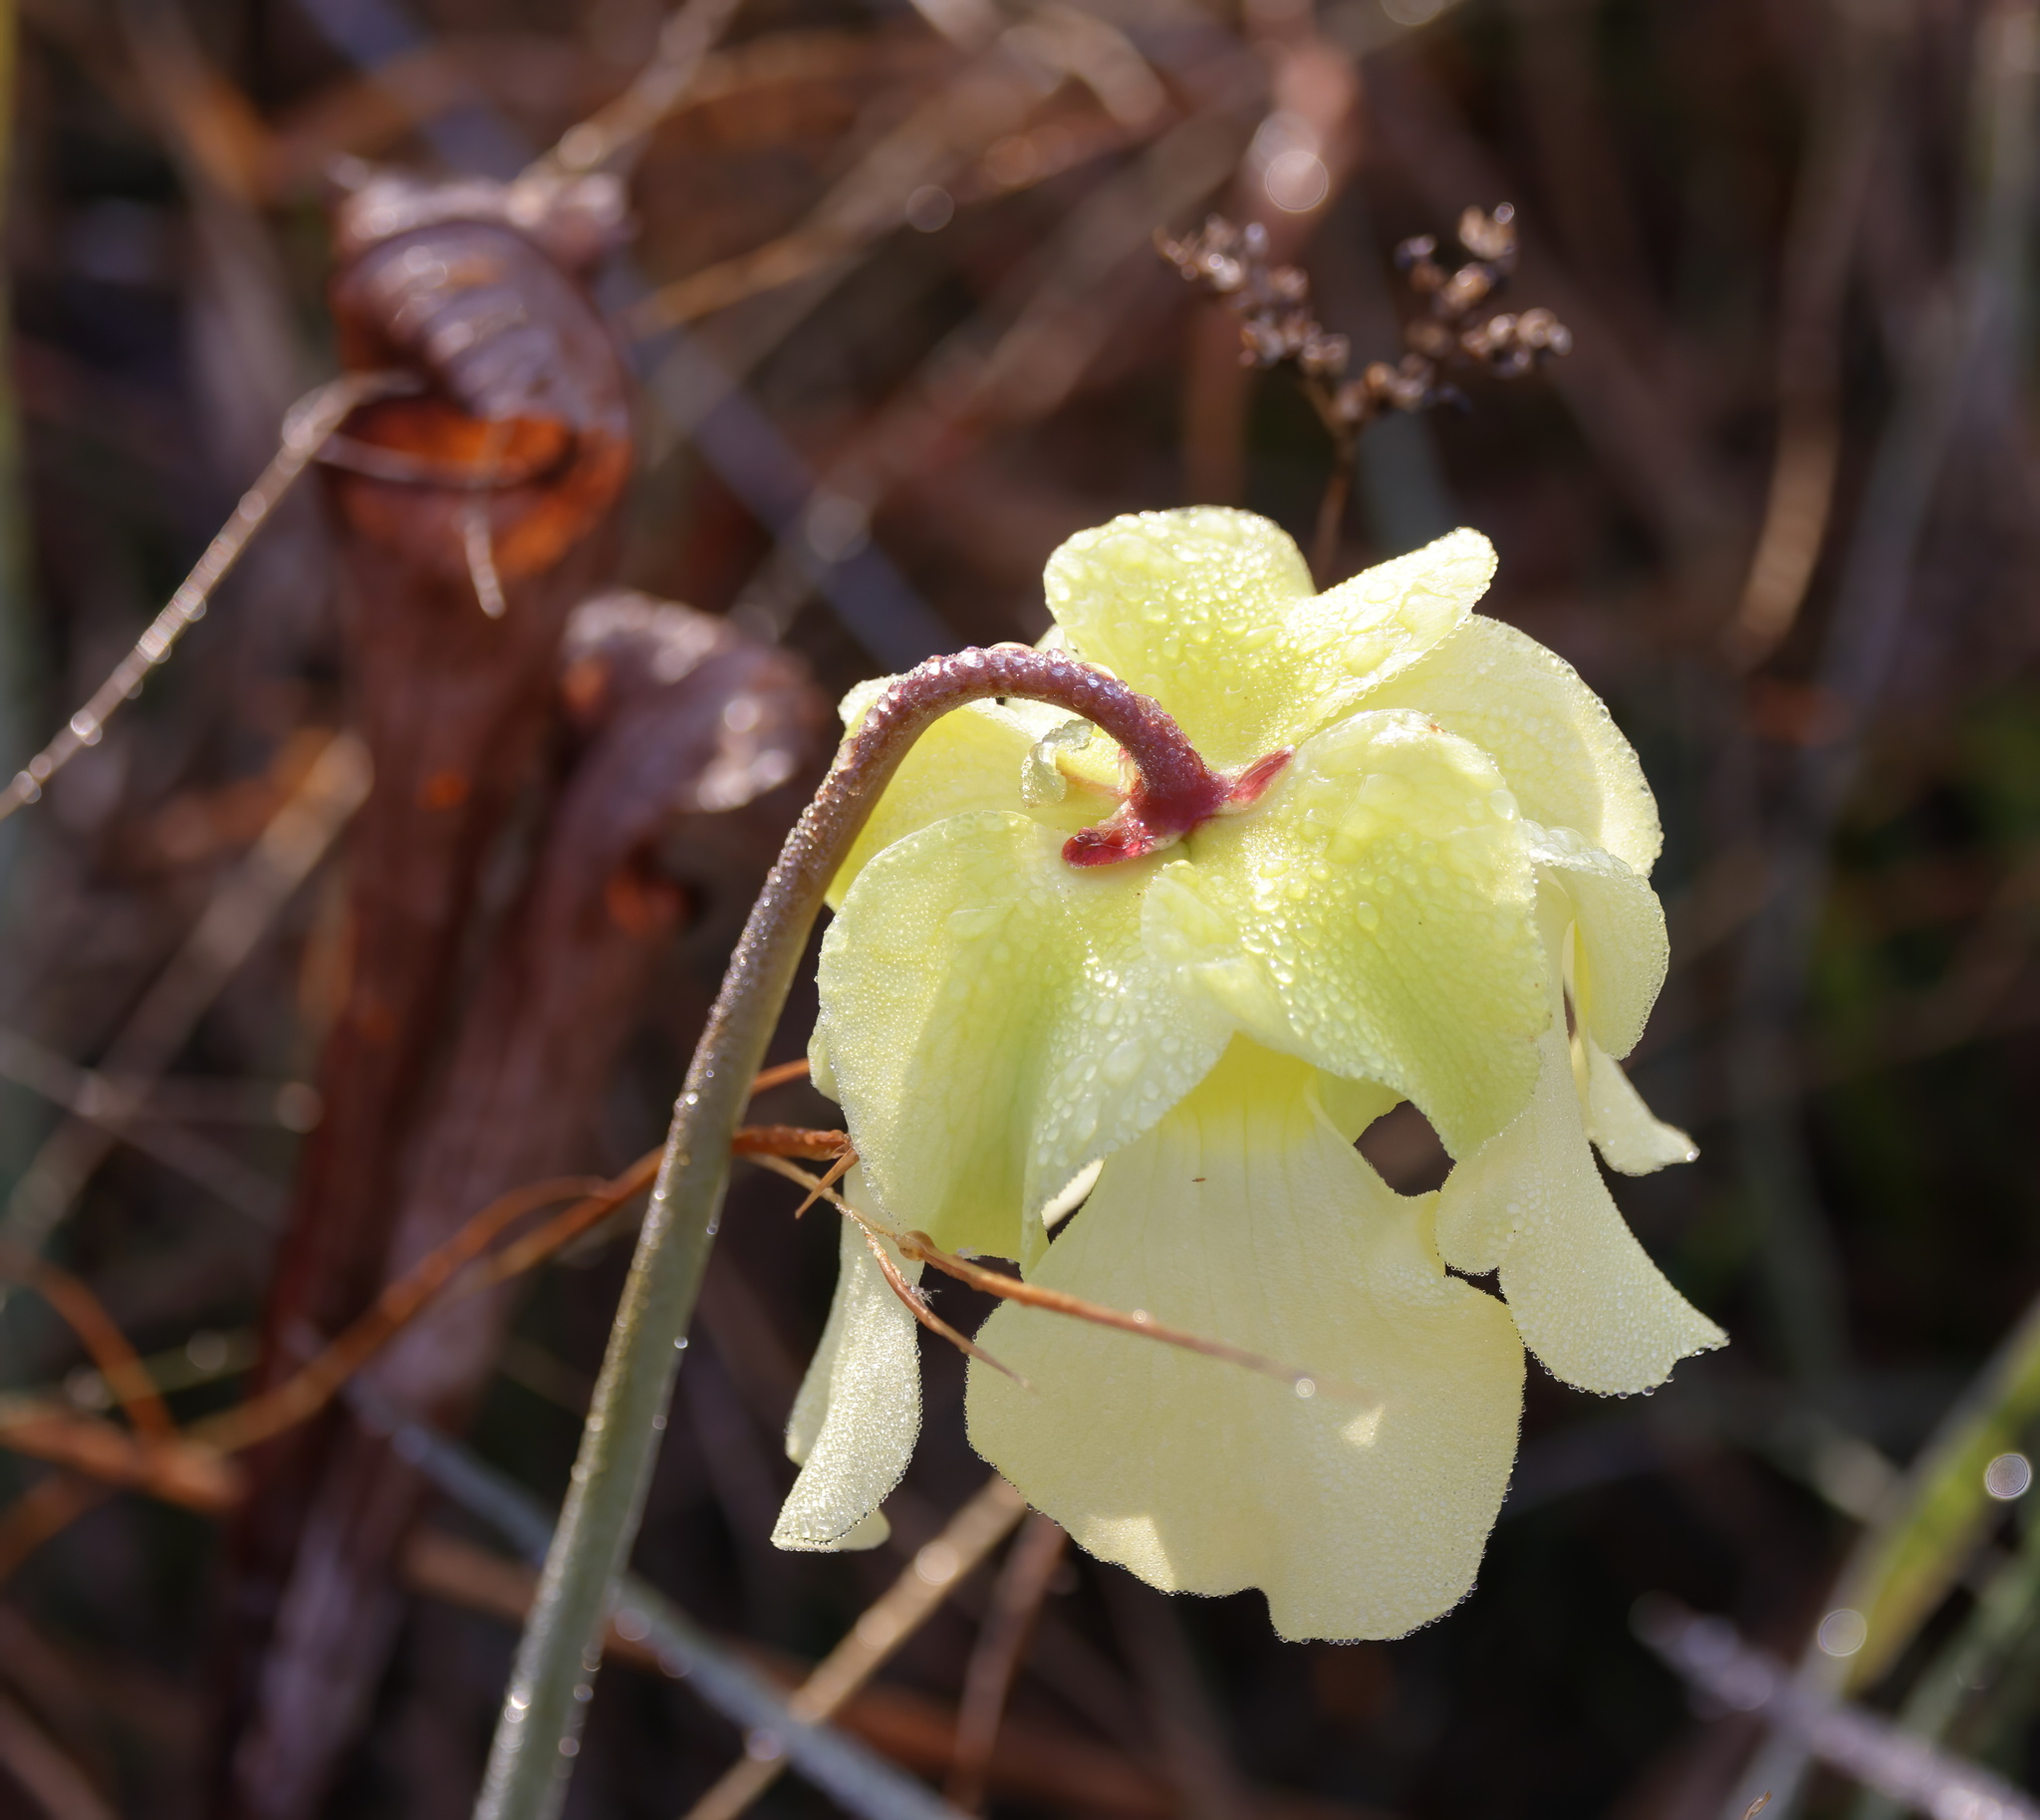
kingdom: Plantae
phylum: Tracheophyta
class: Magnoliopsida
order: Ericales
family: Sarraceniaceae
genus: Sarracenia
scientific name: Sarracenia alata
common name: Yellow trumpets
